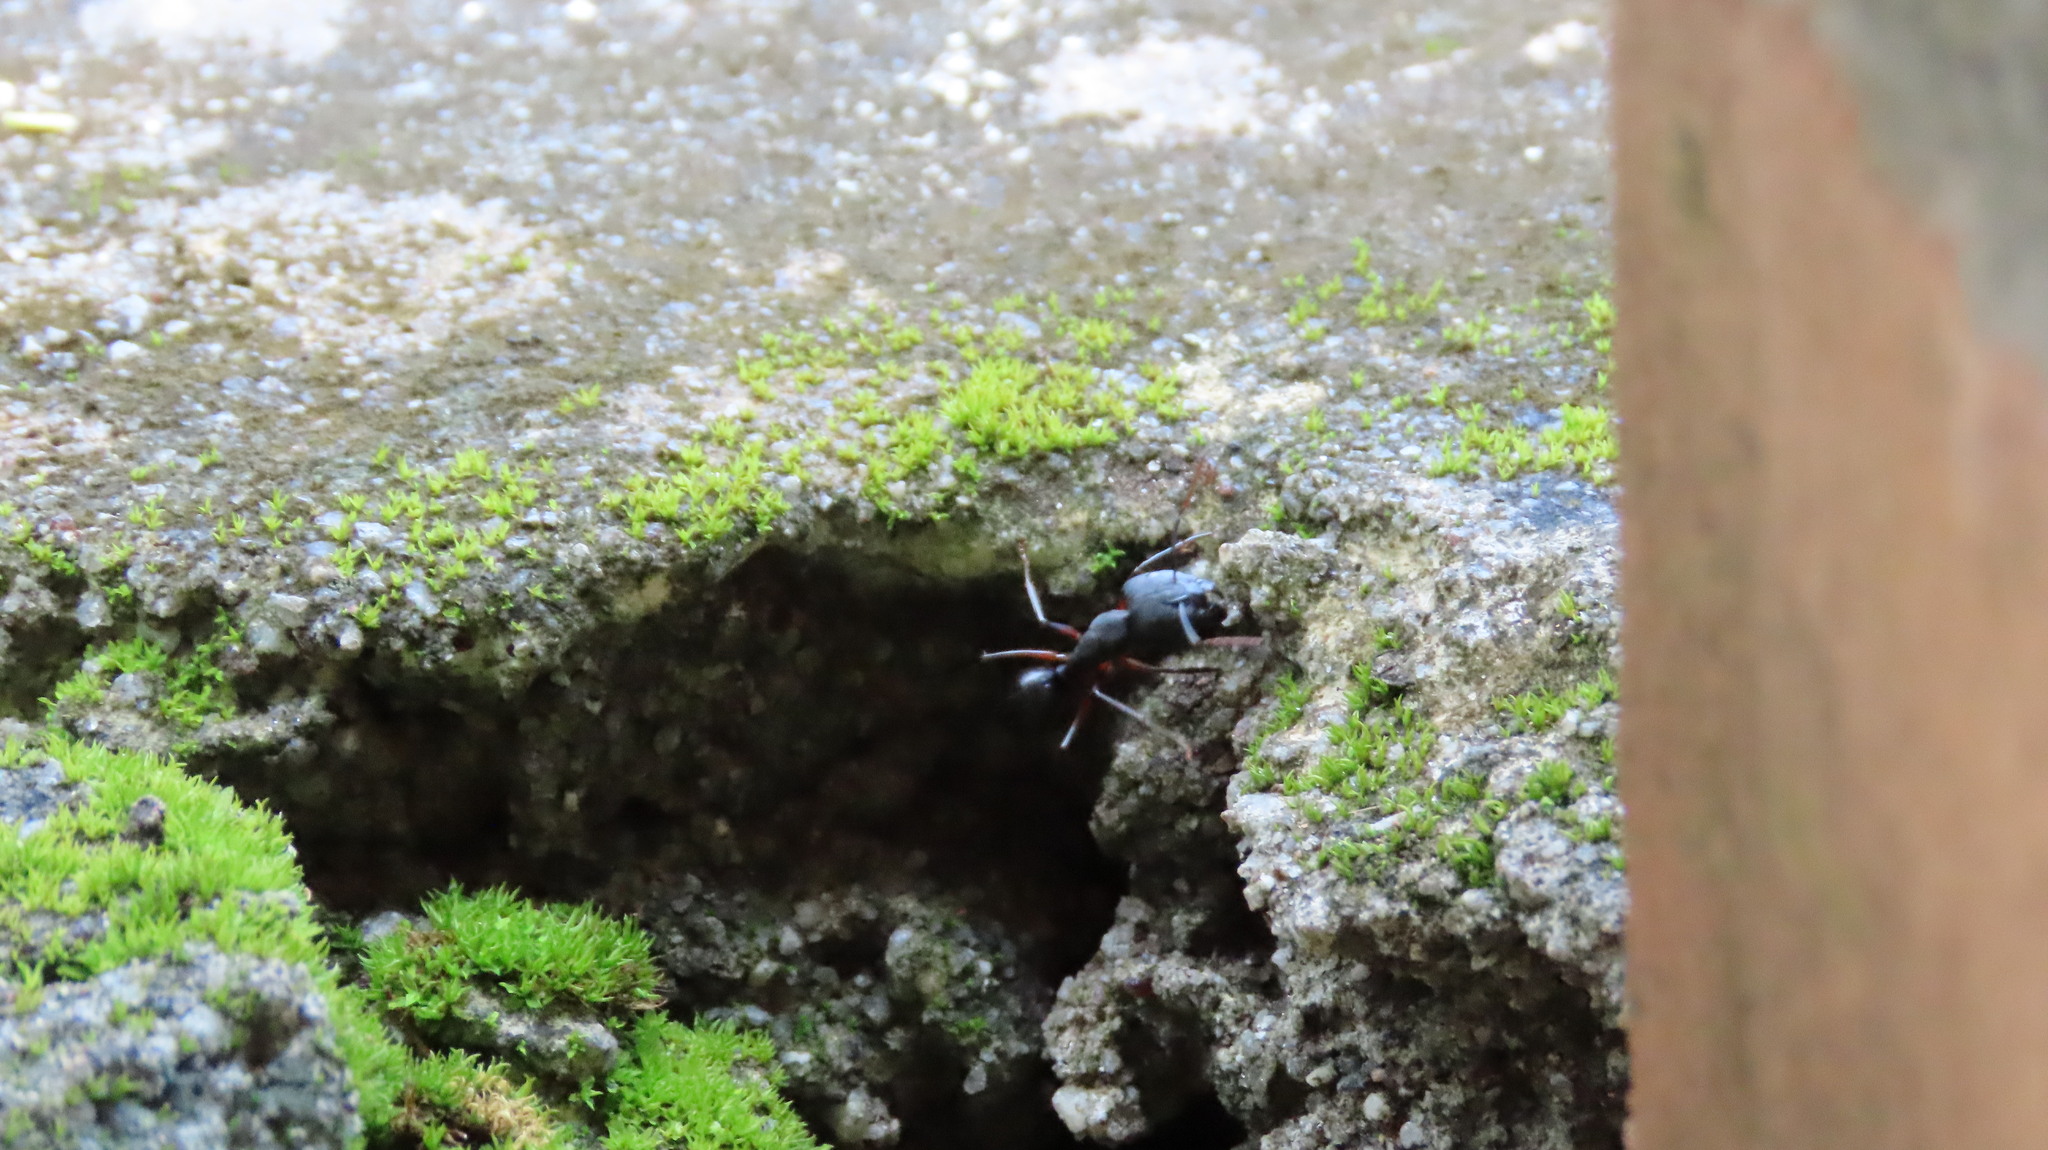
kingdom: Animalia
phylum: Arthropoda
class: Insecta
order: Hymenoptera
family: Formicidae
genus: Camponotus
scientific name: Camponotus compressus
